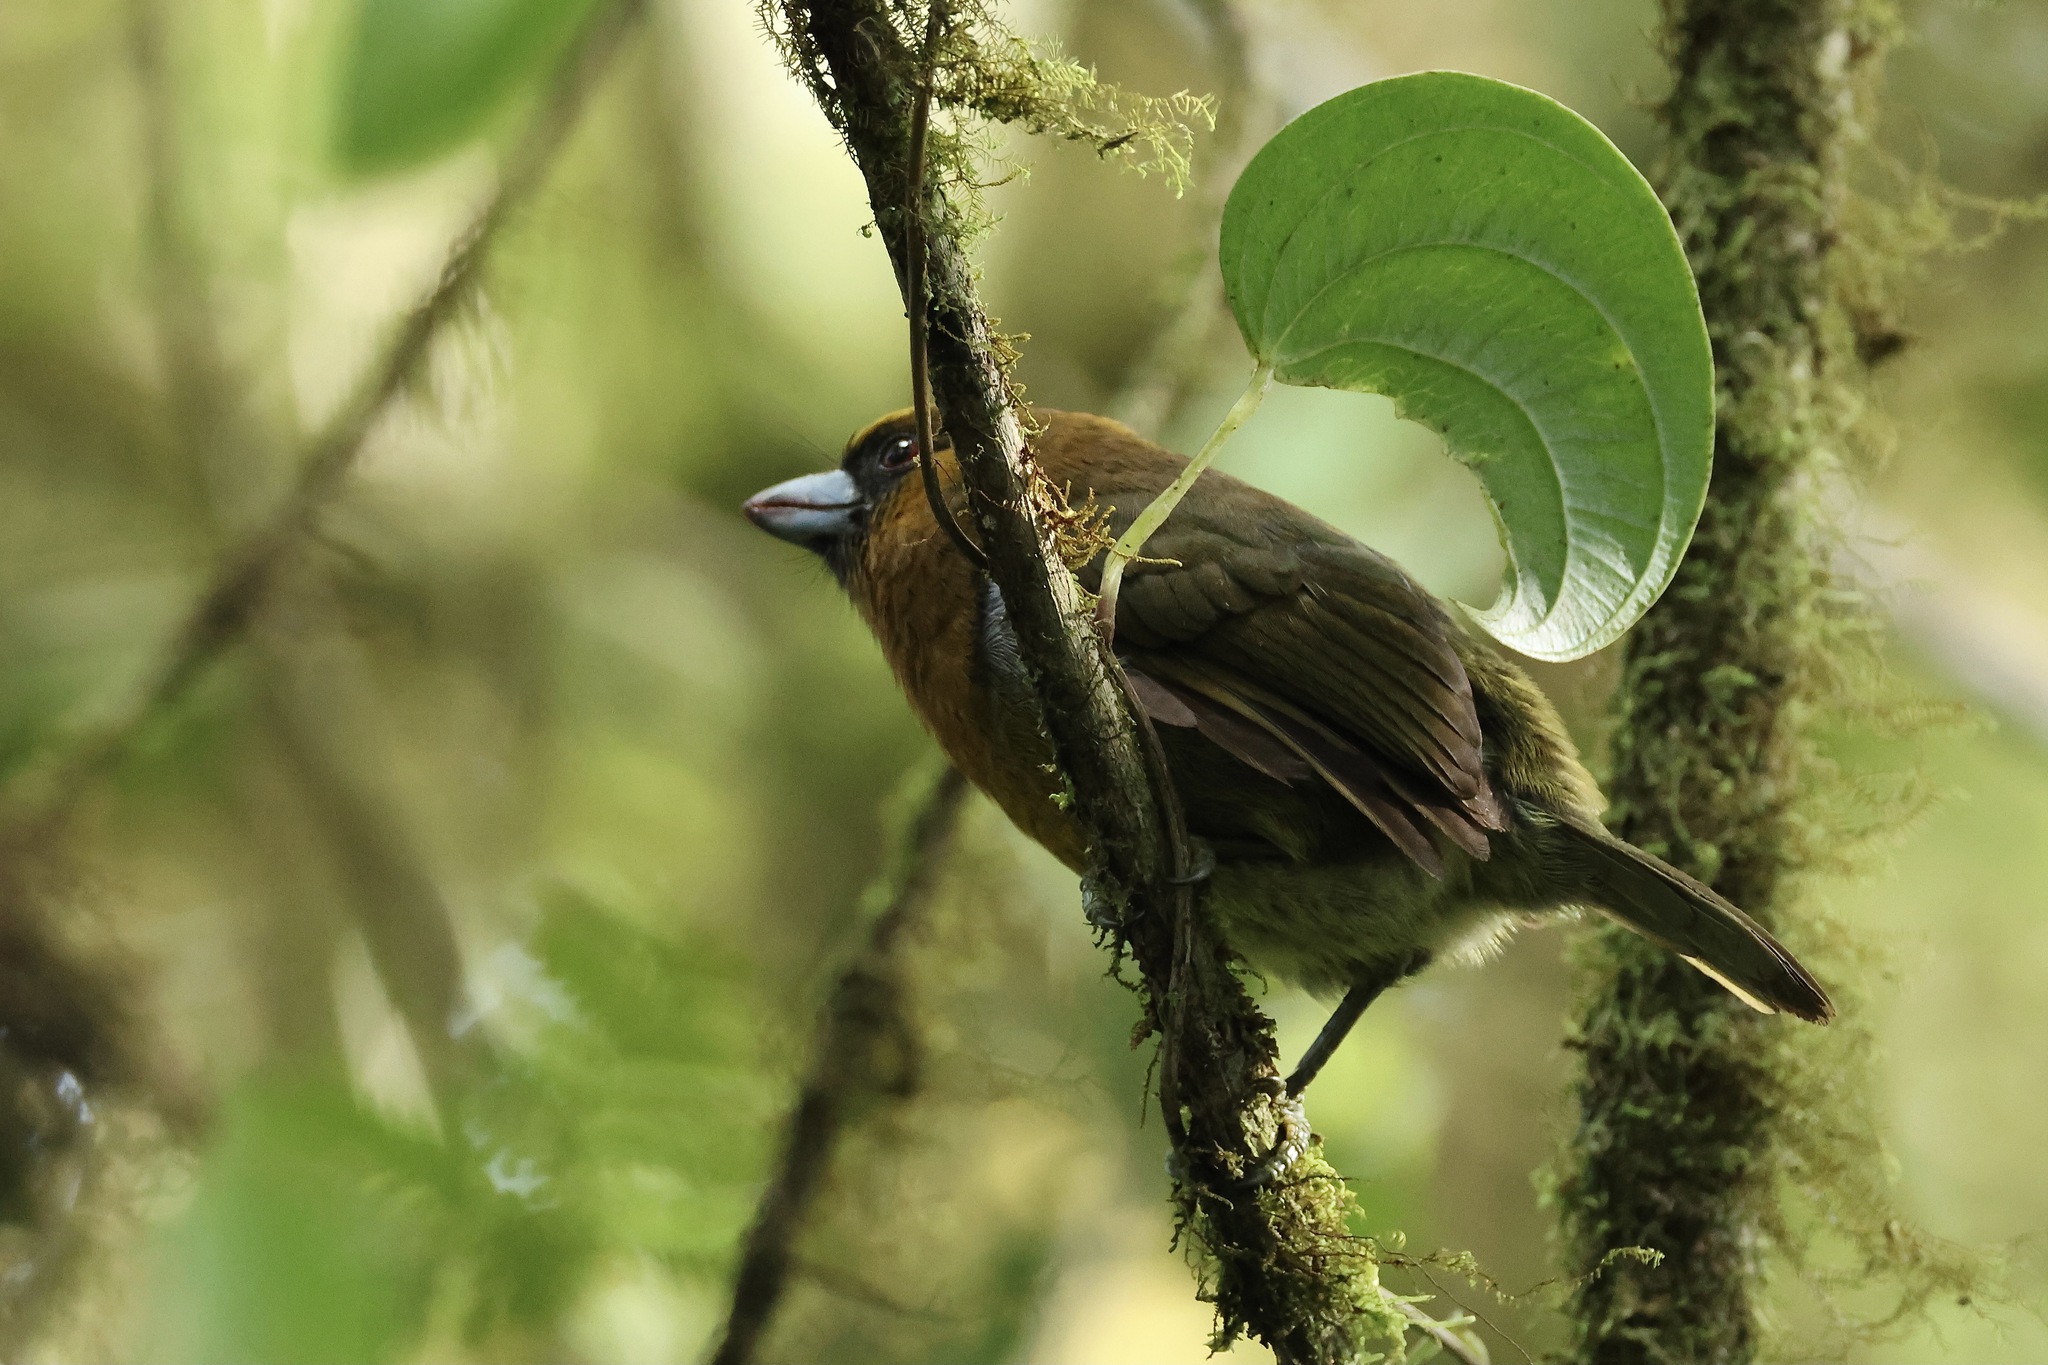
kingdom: Animalia
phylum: Chordata
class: Aves
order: Piciformes
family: Semnornithidae
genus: Semnornis
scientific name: Semnornis frantzii
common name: Prong-billed barbet
